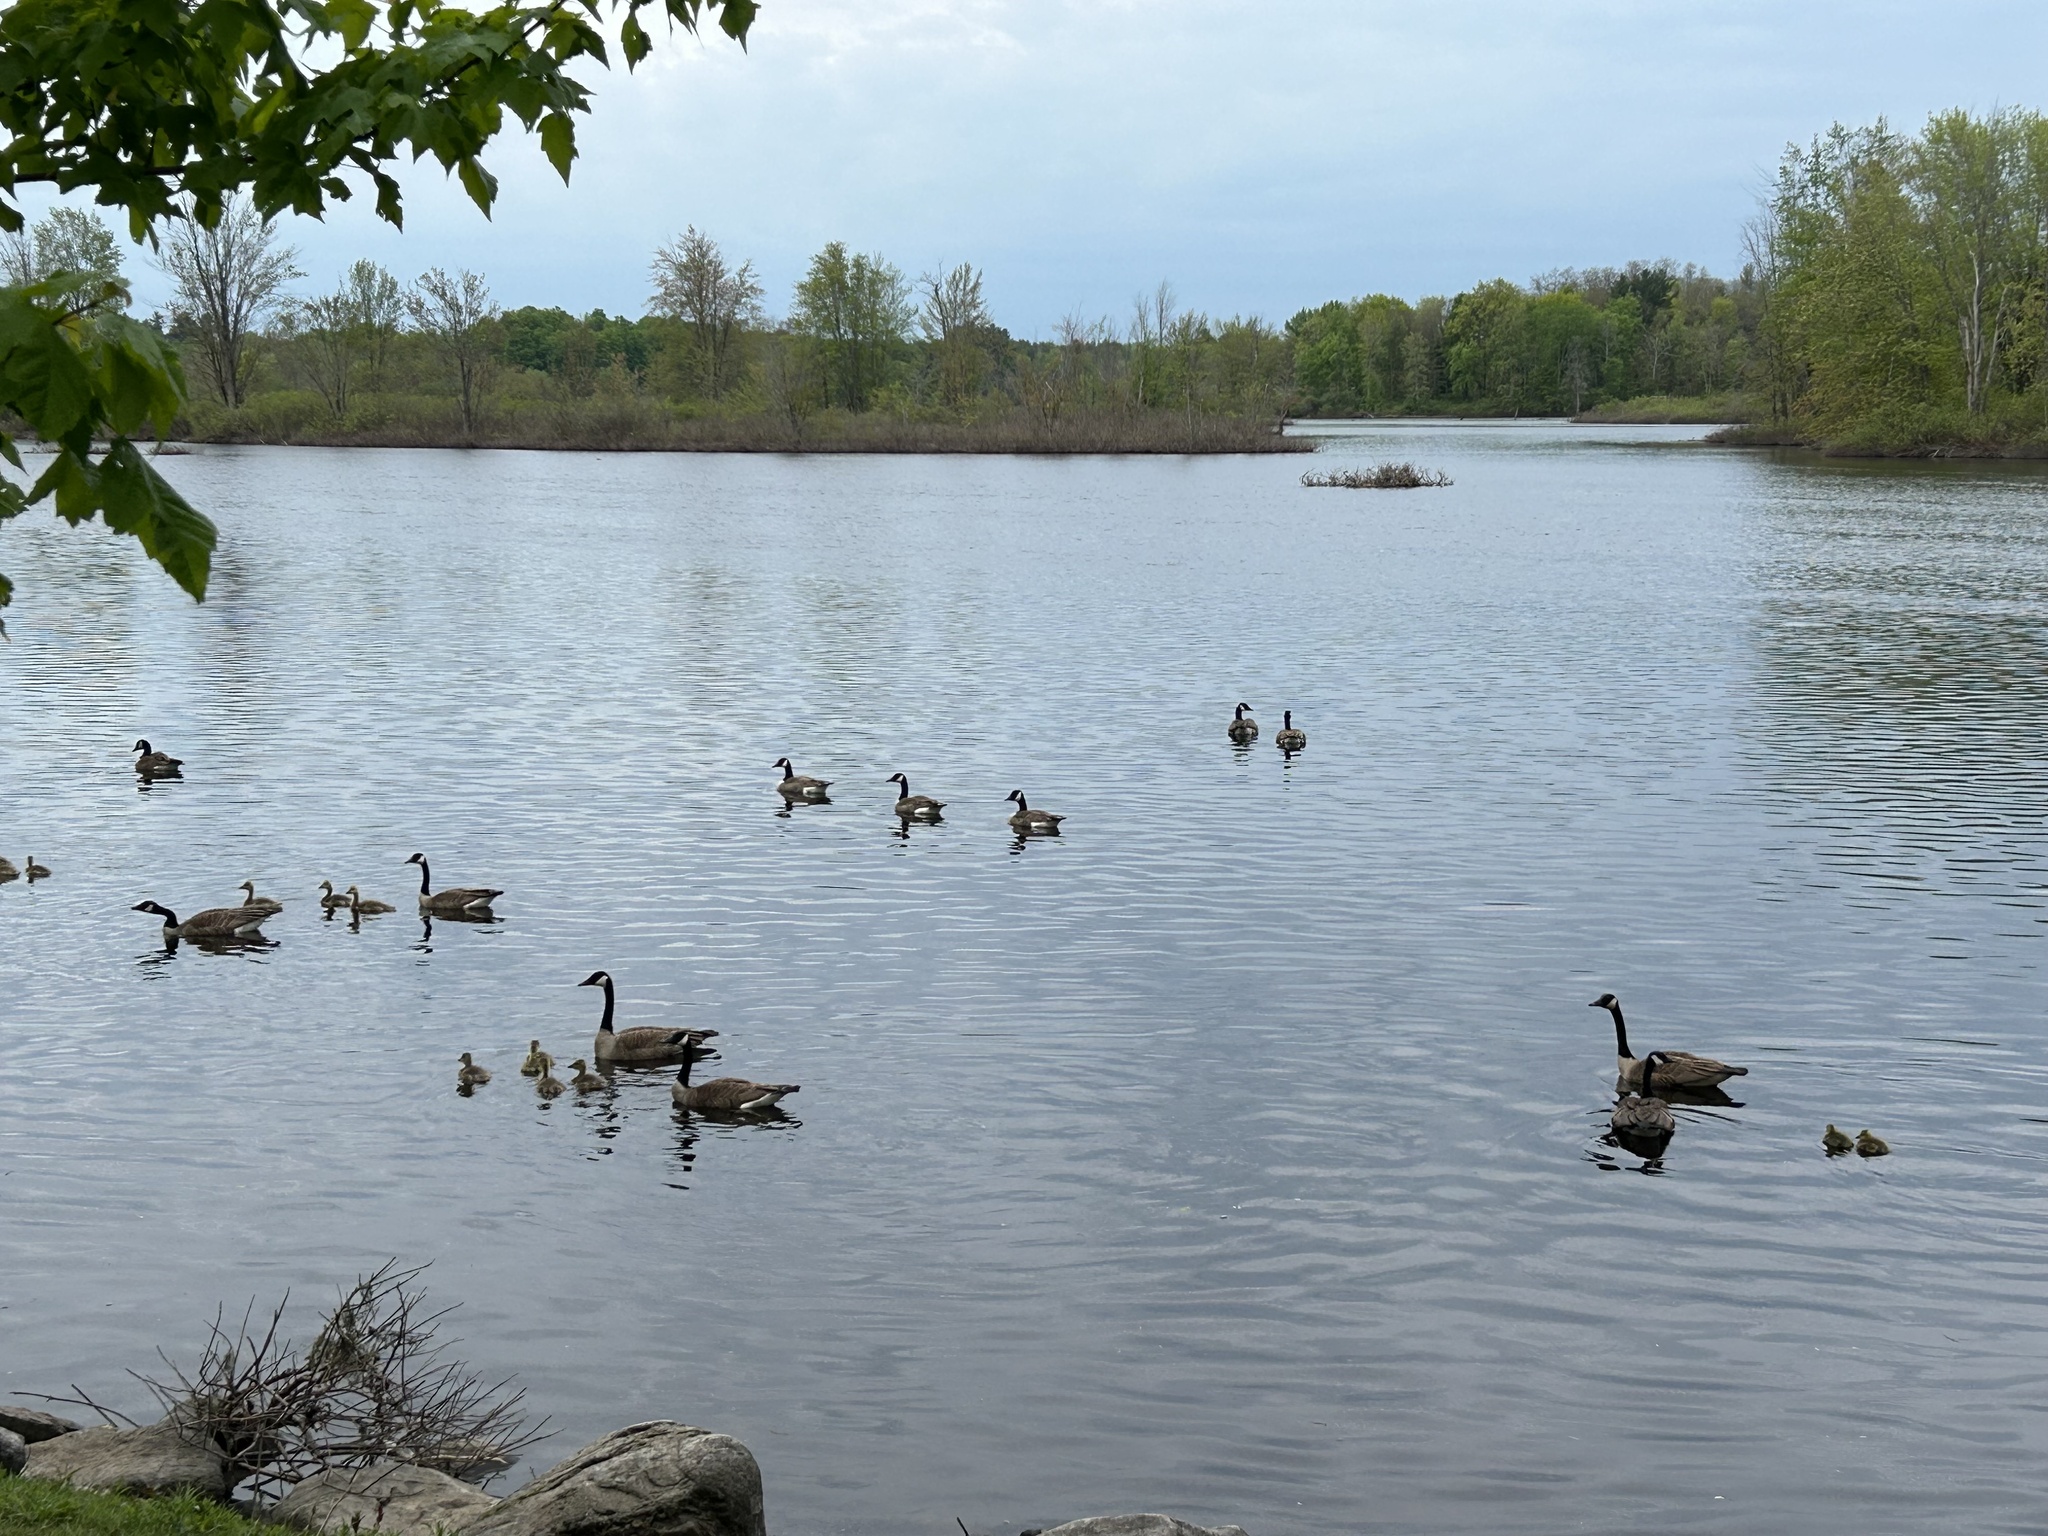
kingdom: Animalia
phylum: Chordata
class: Aves
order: Anseriformes
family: Anatidae
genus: Branta
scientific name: Branta canadensis
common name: Canada goose
